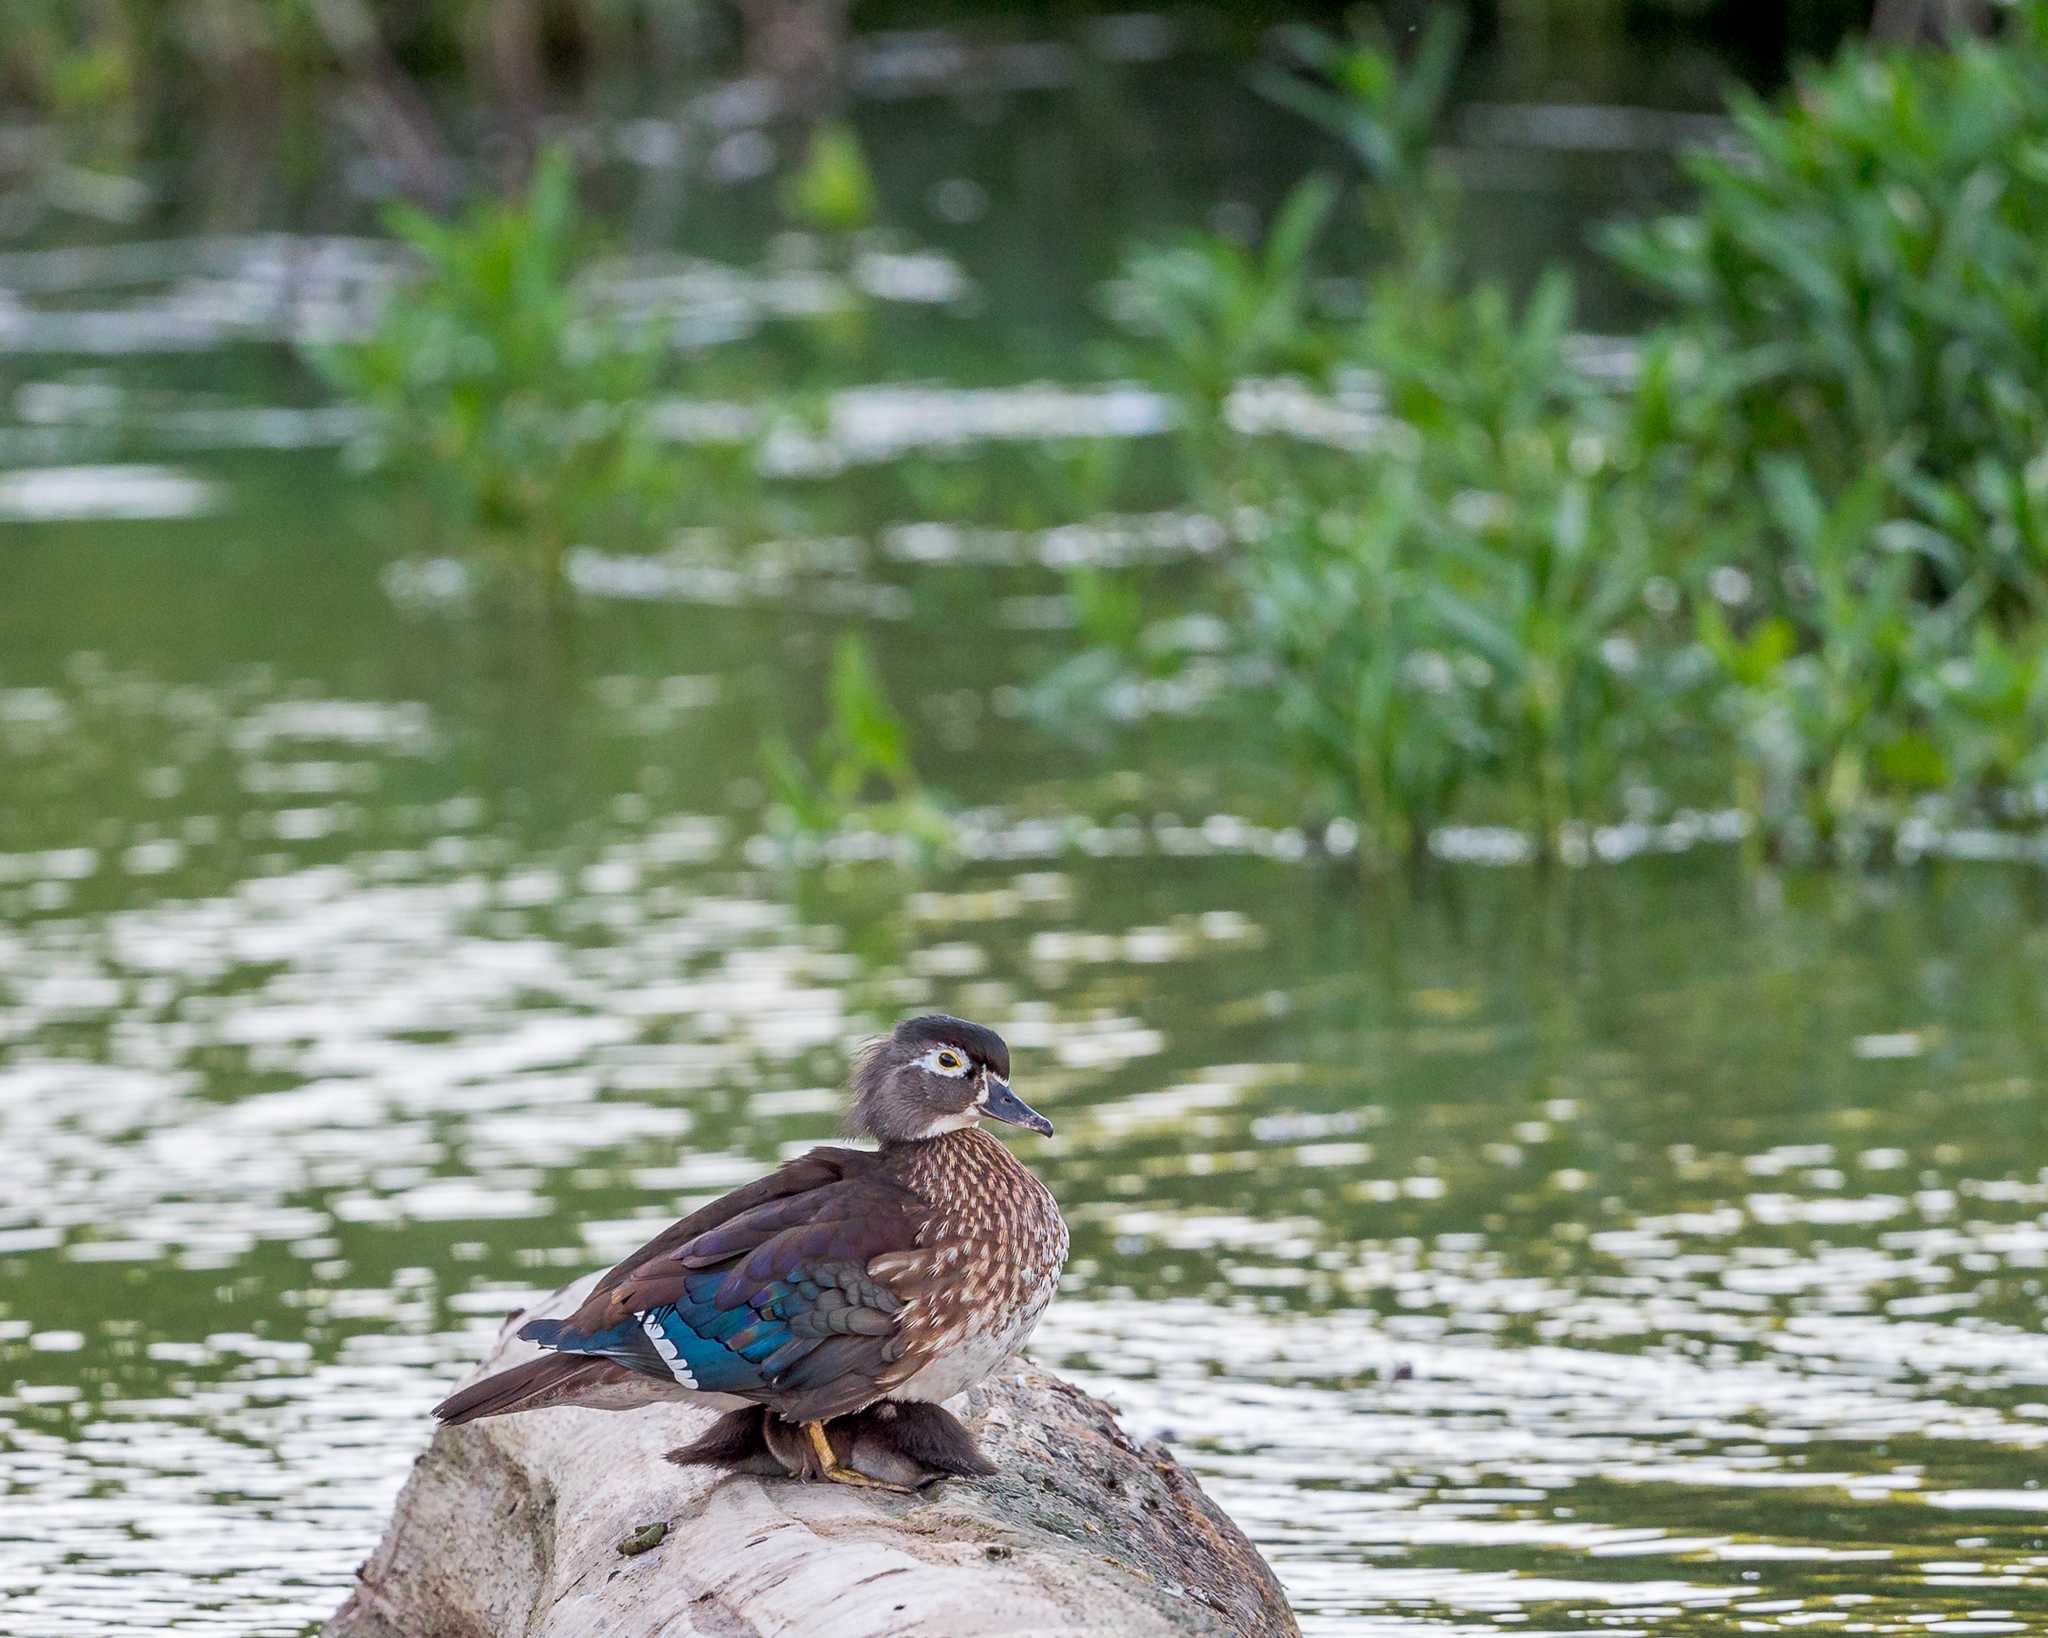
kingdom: Animalia
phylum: Chordata
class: Aves
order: Anseriformes
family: Anatidae
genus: Aix
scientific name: Aix sponsa
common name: Wood duck
